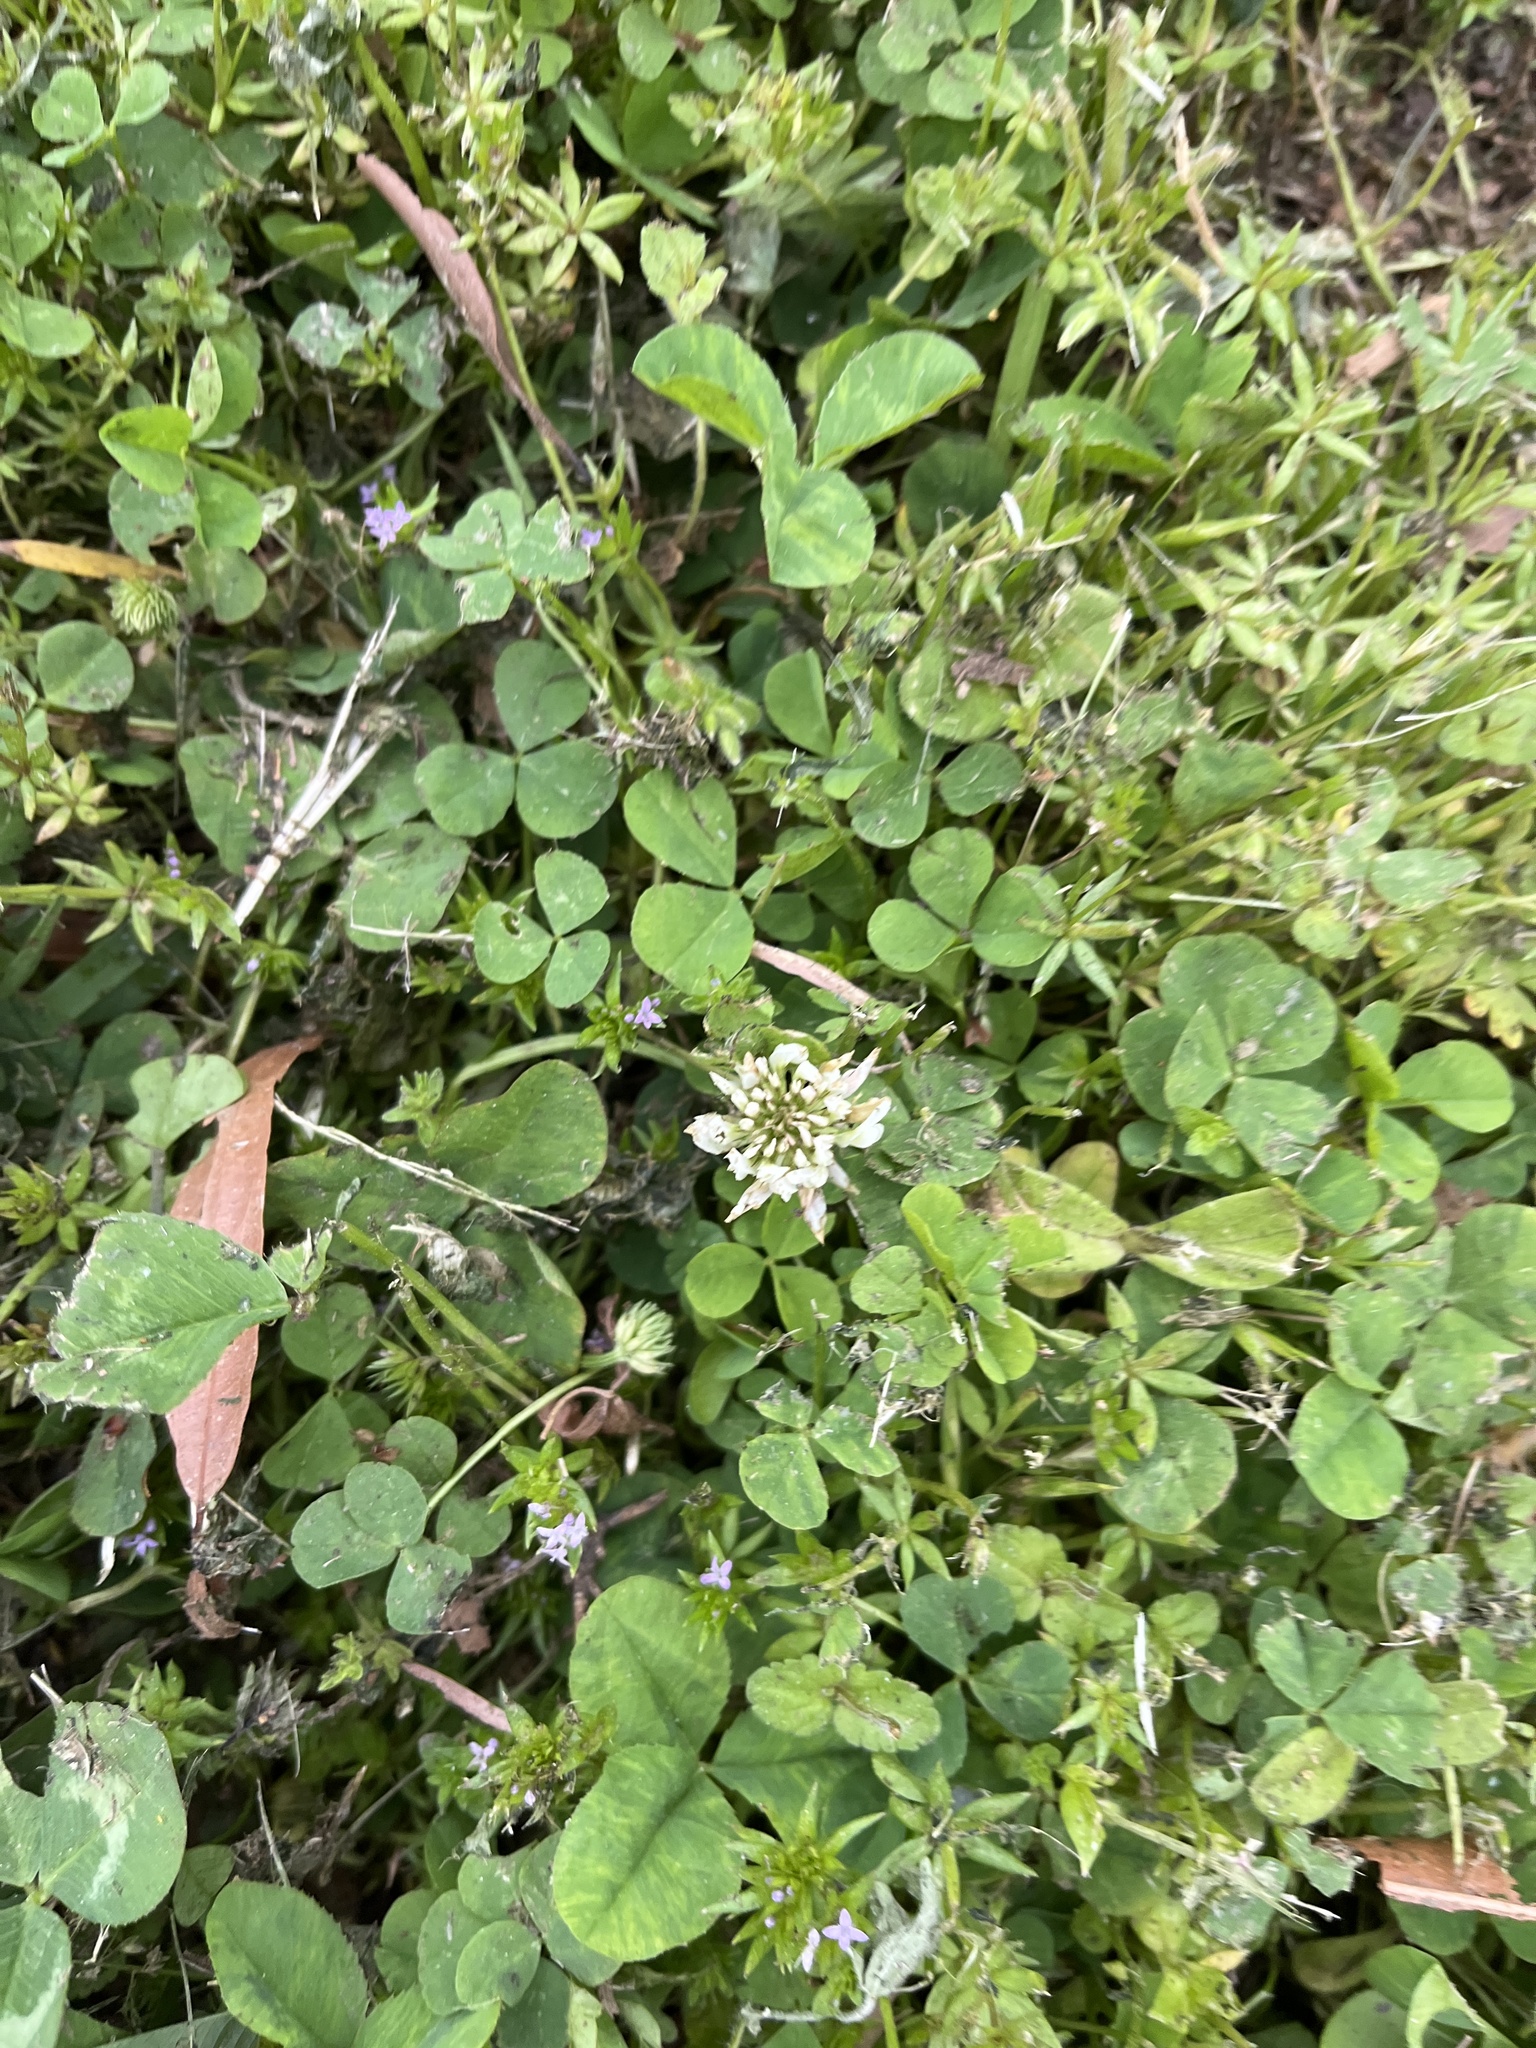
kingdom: Plantae
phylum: Tracheophyta
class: Magnoliopsida
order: Fabales
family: Fabaceae
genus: Trifolium
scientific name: Trifolium repens
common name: White clover
